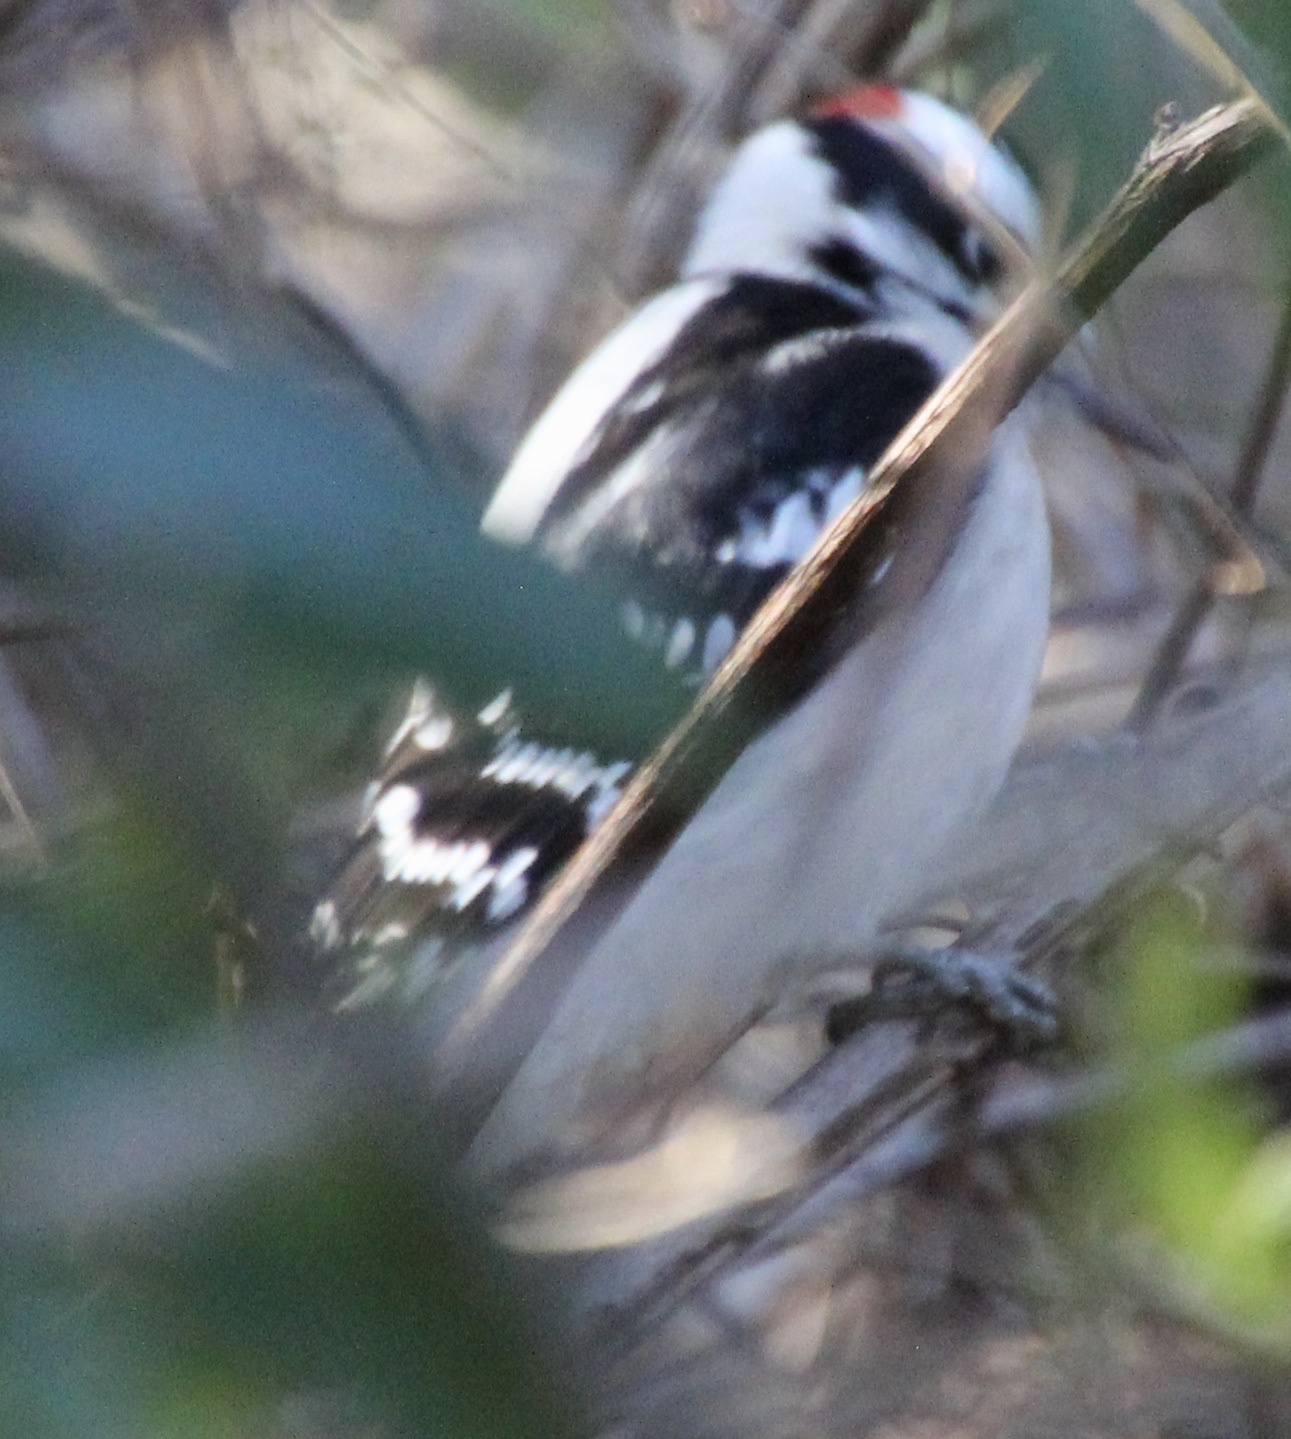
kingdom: Animalia
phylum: Chordata
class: Aves
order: Piciformes
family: Picidae
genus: Dryobates
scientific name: Dryobates pubescens
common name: Downy woodpecker
